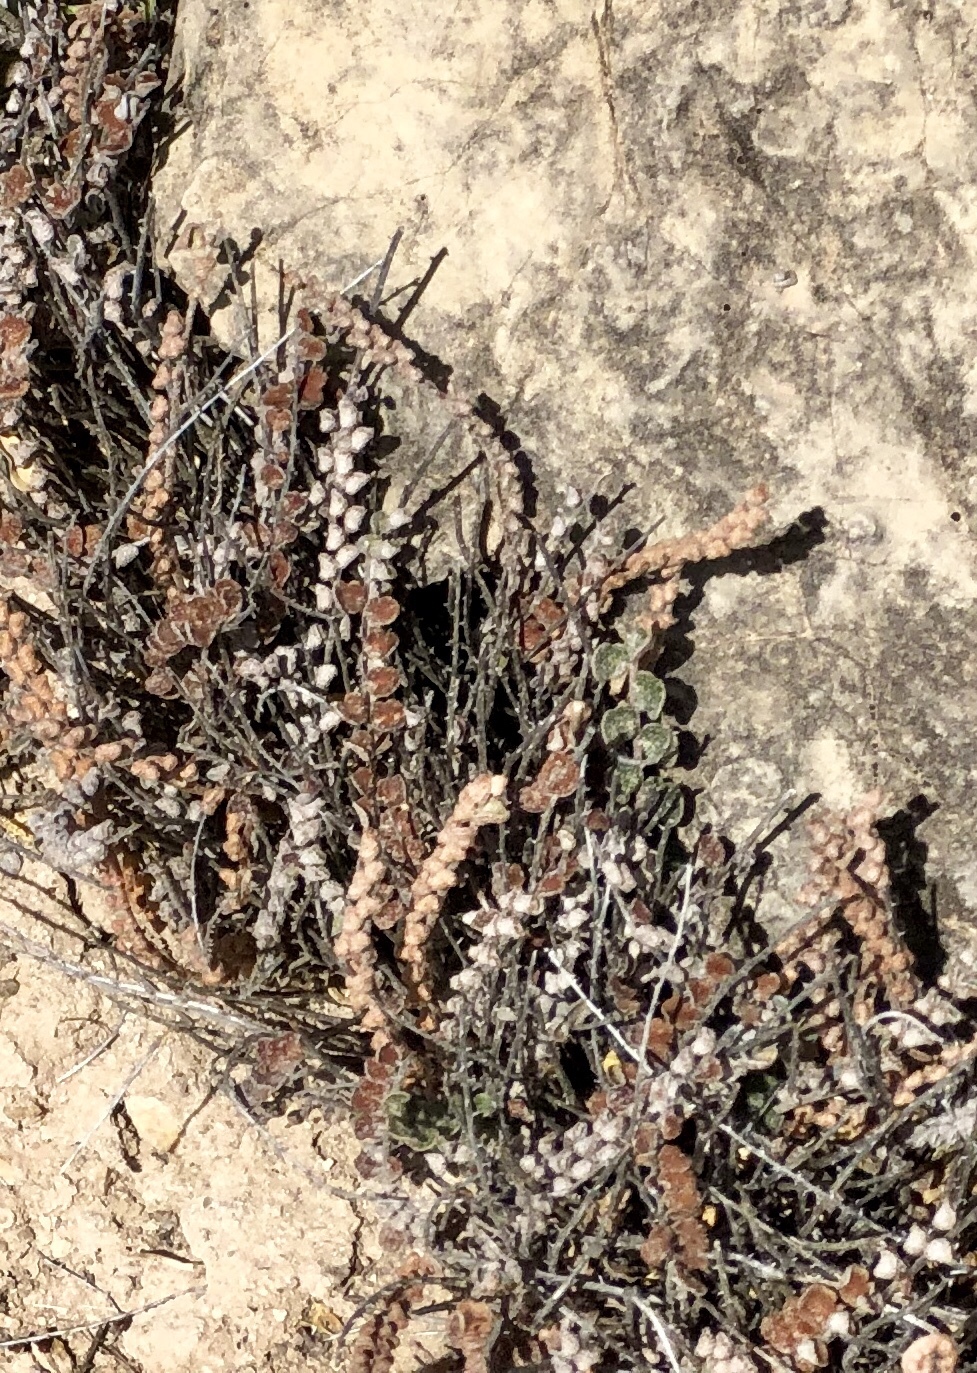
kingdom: Plantae
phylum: Tracheophyta
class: Polypodiopsida
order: Polypodiales
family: Pteridaceae
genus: Astrolepis
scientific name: Astrolepis cochisensis
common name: Scaly cloak fern
